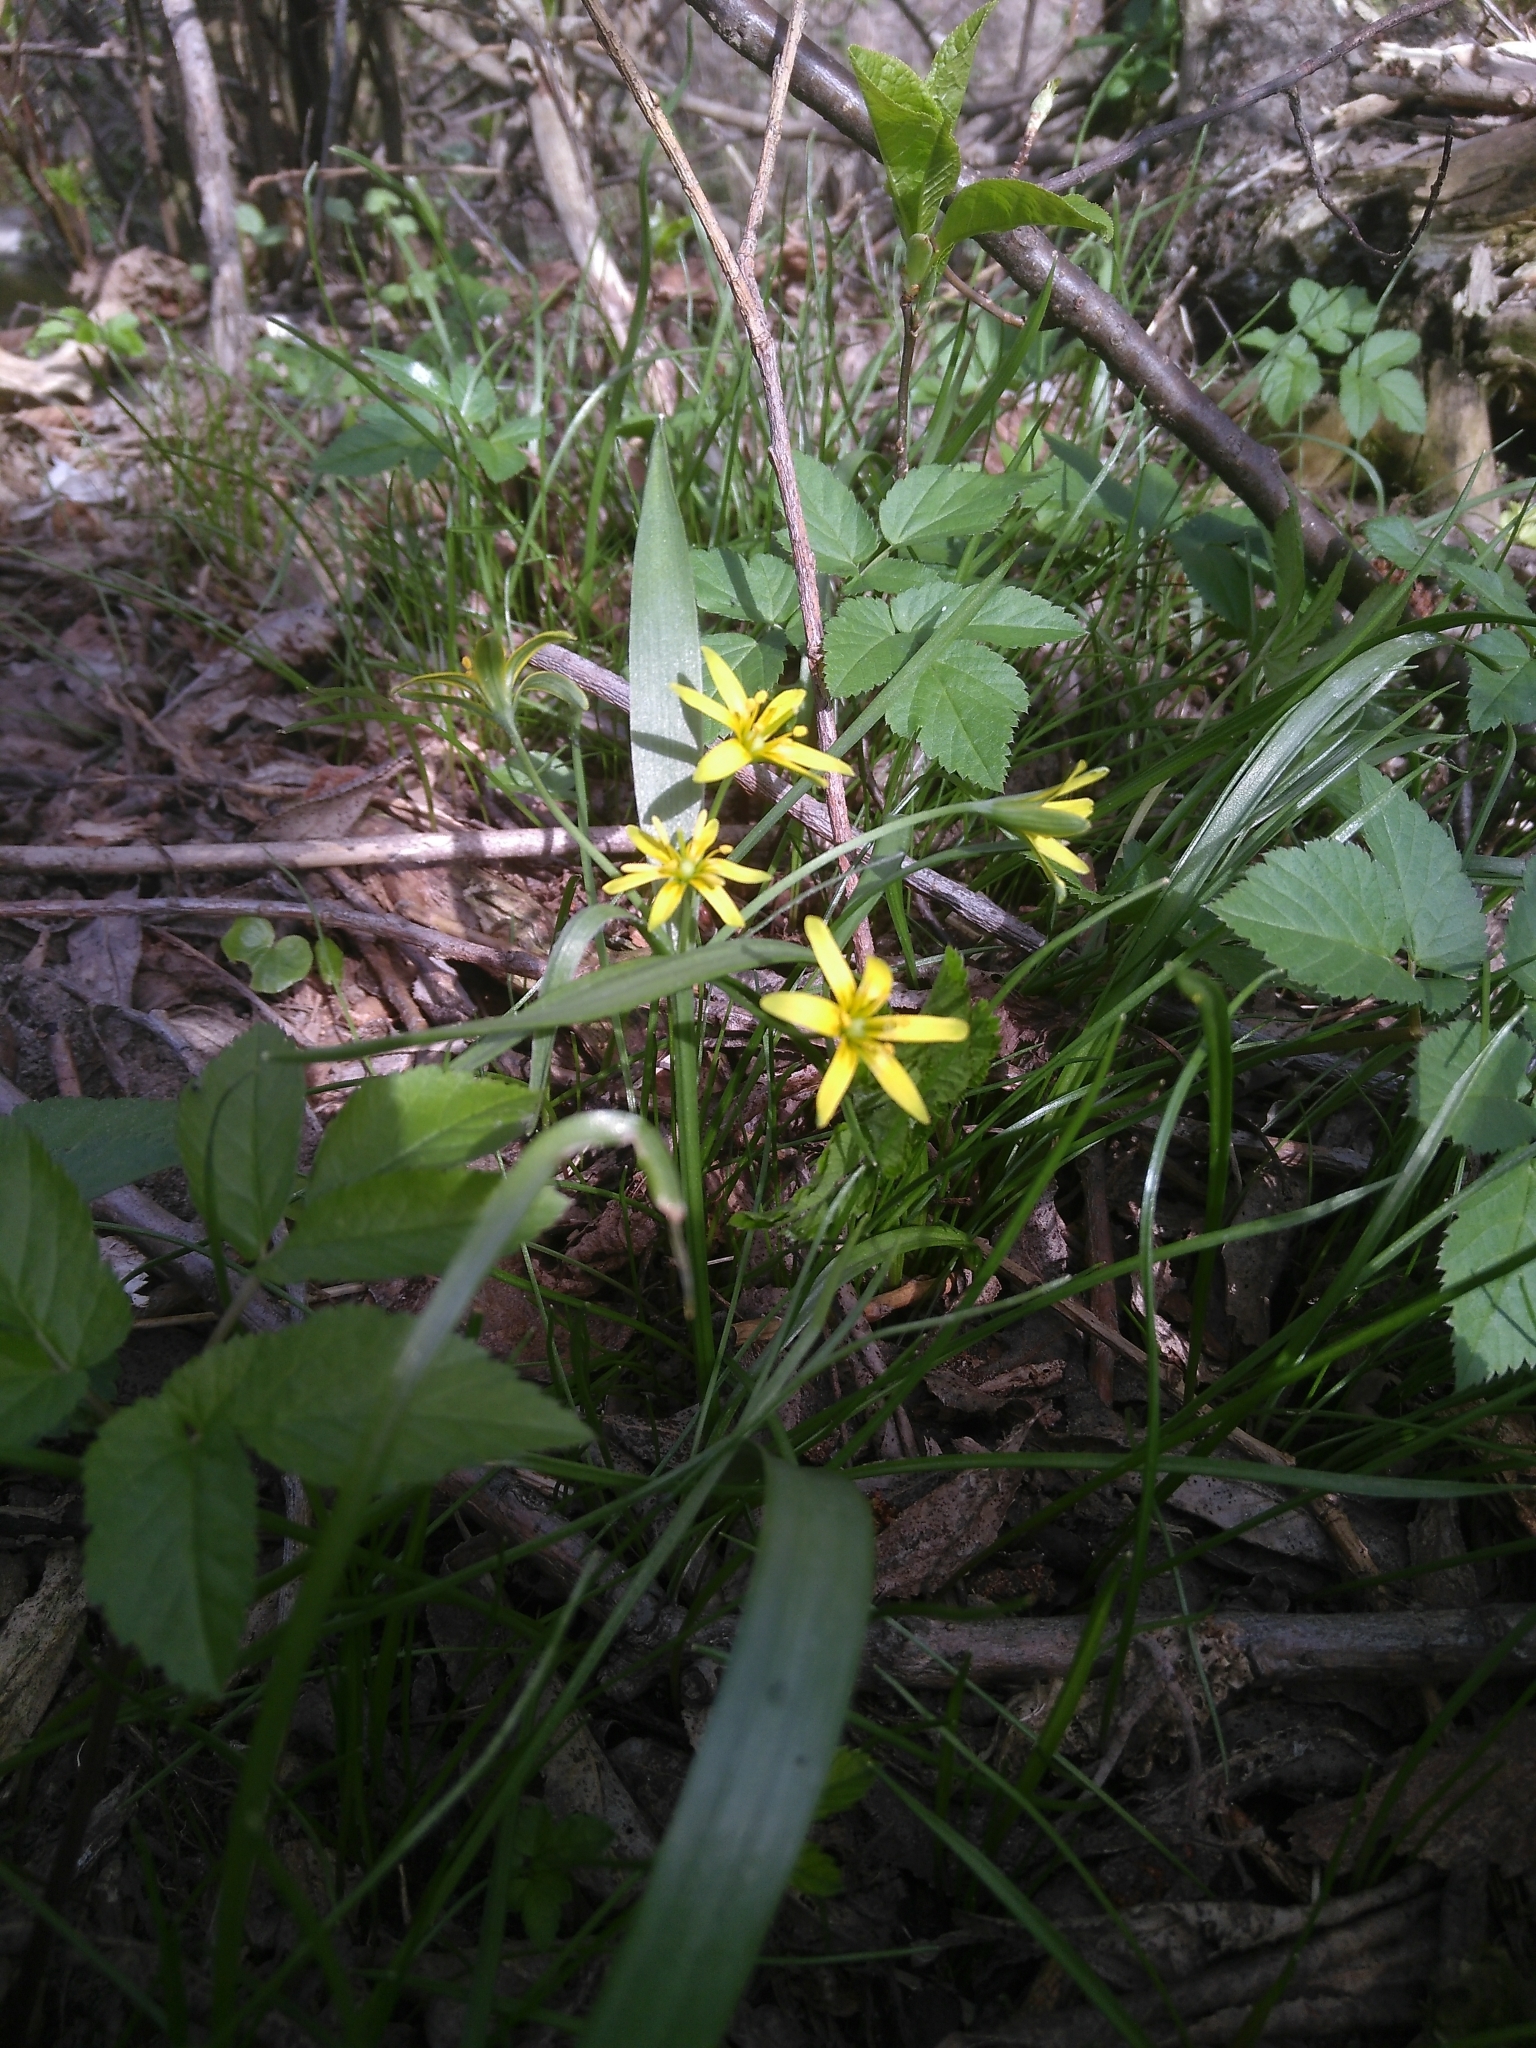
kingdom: Plantae
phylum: Tracheophyta
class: Liliopsida
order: Liliales
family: Liliaceae
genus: Gagea
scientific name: Gagea lutea
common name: Yellow star-of-bethlehem
